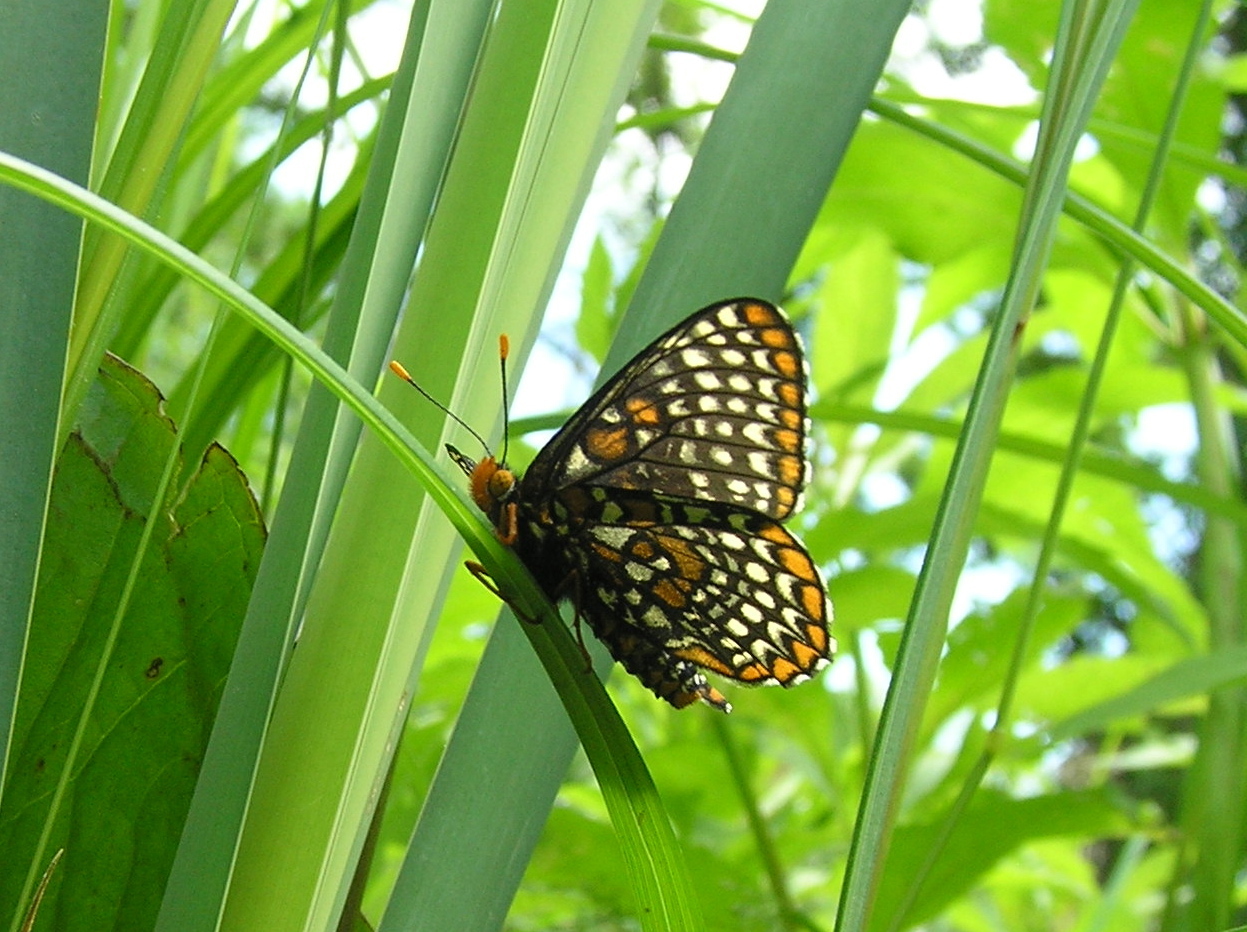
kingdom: Animalia
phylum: Arthropoda
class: Insecta
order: Lepidoptera
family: Nymphalidae
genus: Euphydryas
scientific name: Euphydryas phaeton
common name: Baltimore checkerspot
